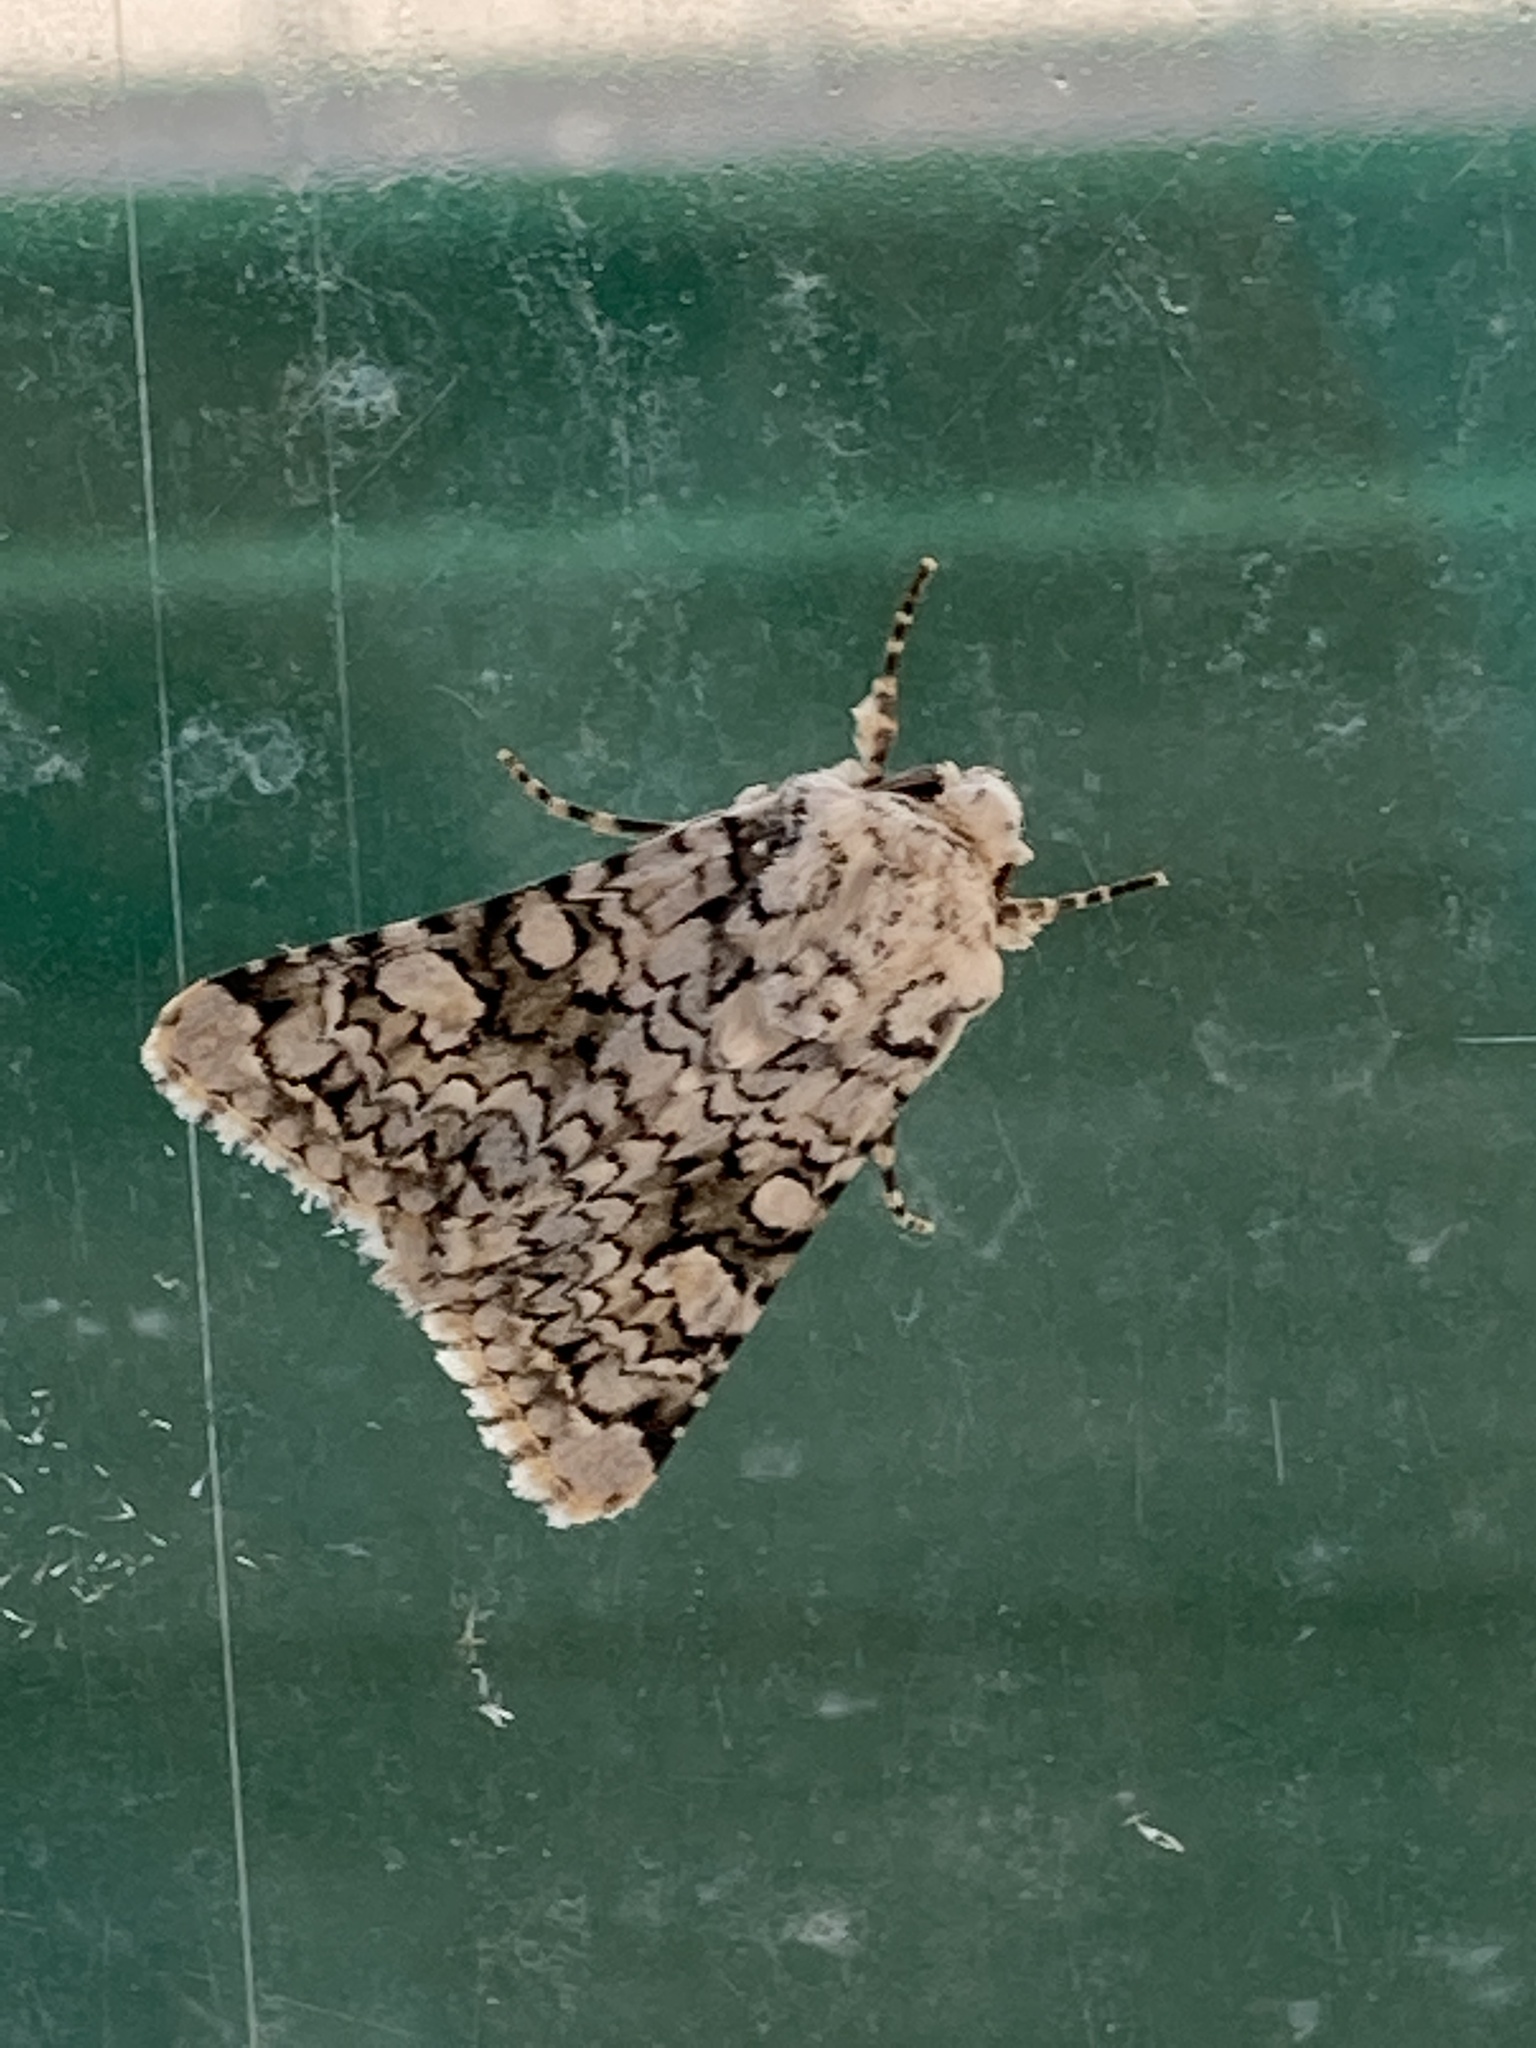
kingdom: Animalia
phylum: Arthropoda
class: Insecta
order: Lepidoptera
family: Noctuidae
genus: Hecatera
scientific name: Hecatera cappa
